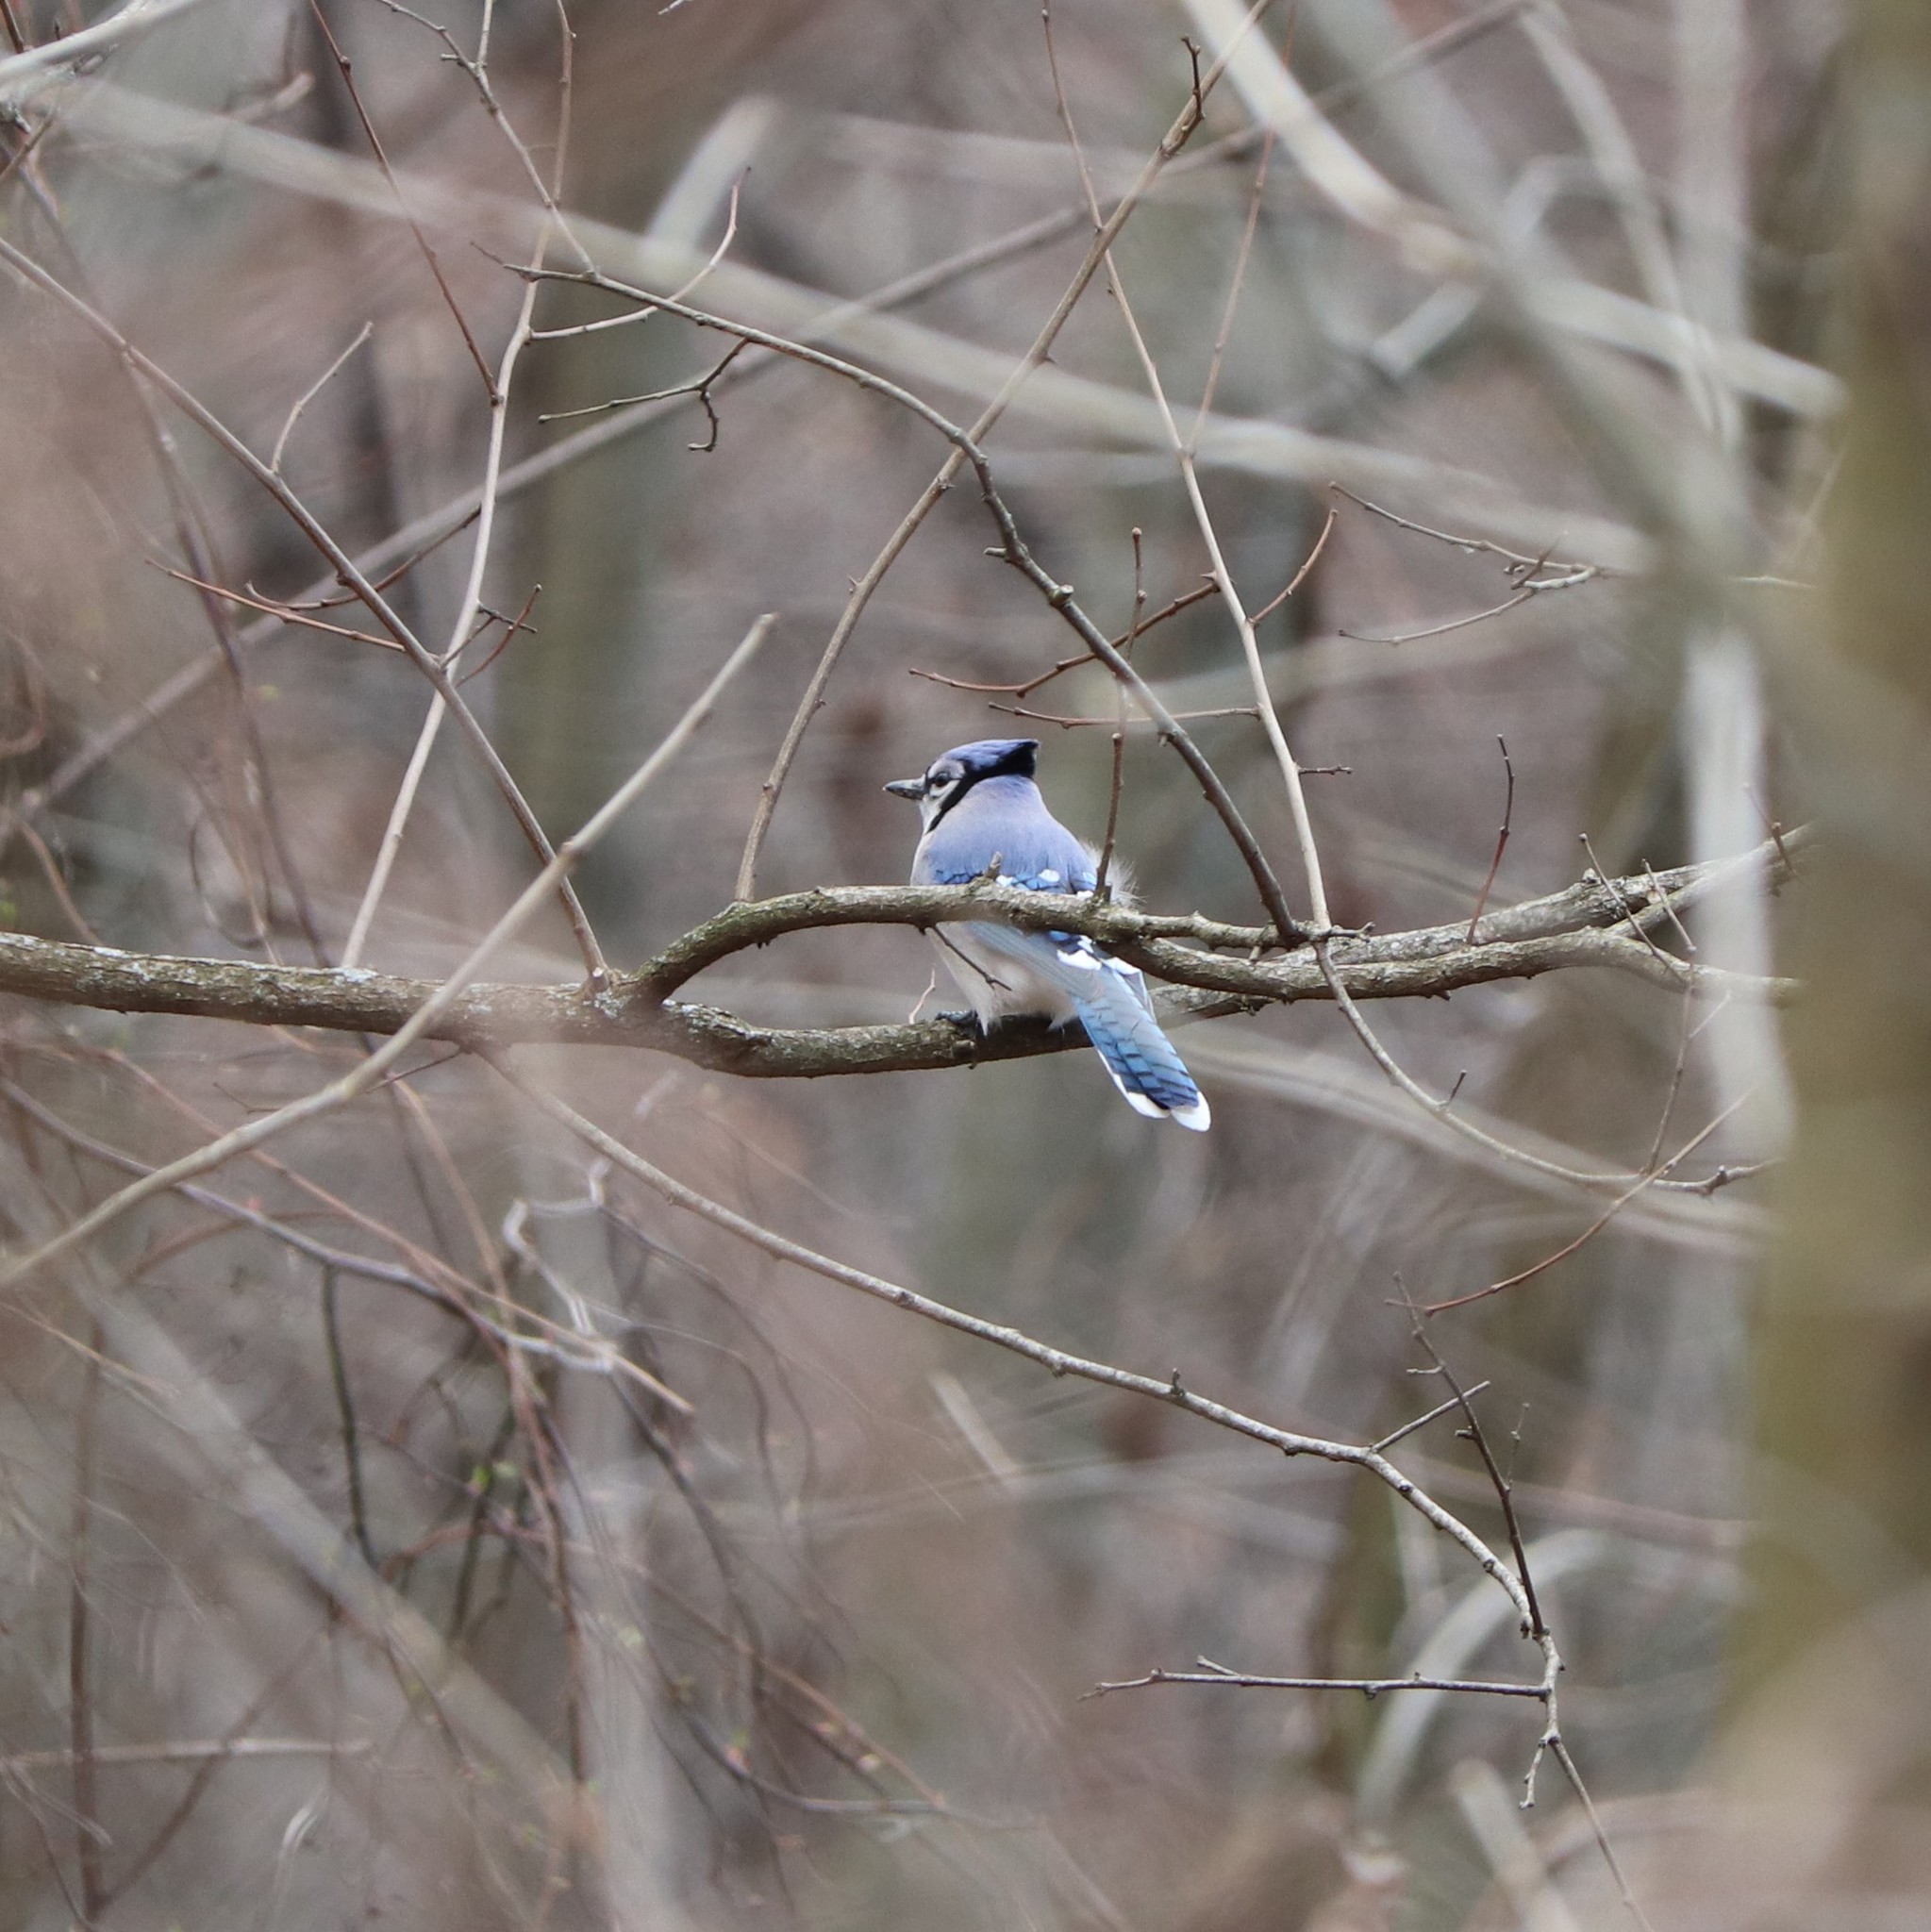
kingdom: Animalia
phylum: Chordata
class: Aves
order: Passeriformes
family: Corvidae
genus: Cyanocitta
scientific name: Cyanocitta cristata
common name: Blue jay
